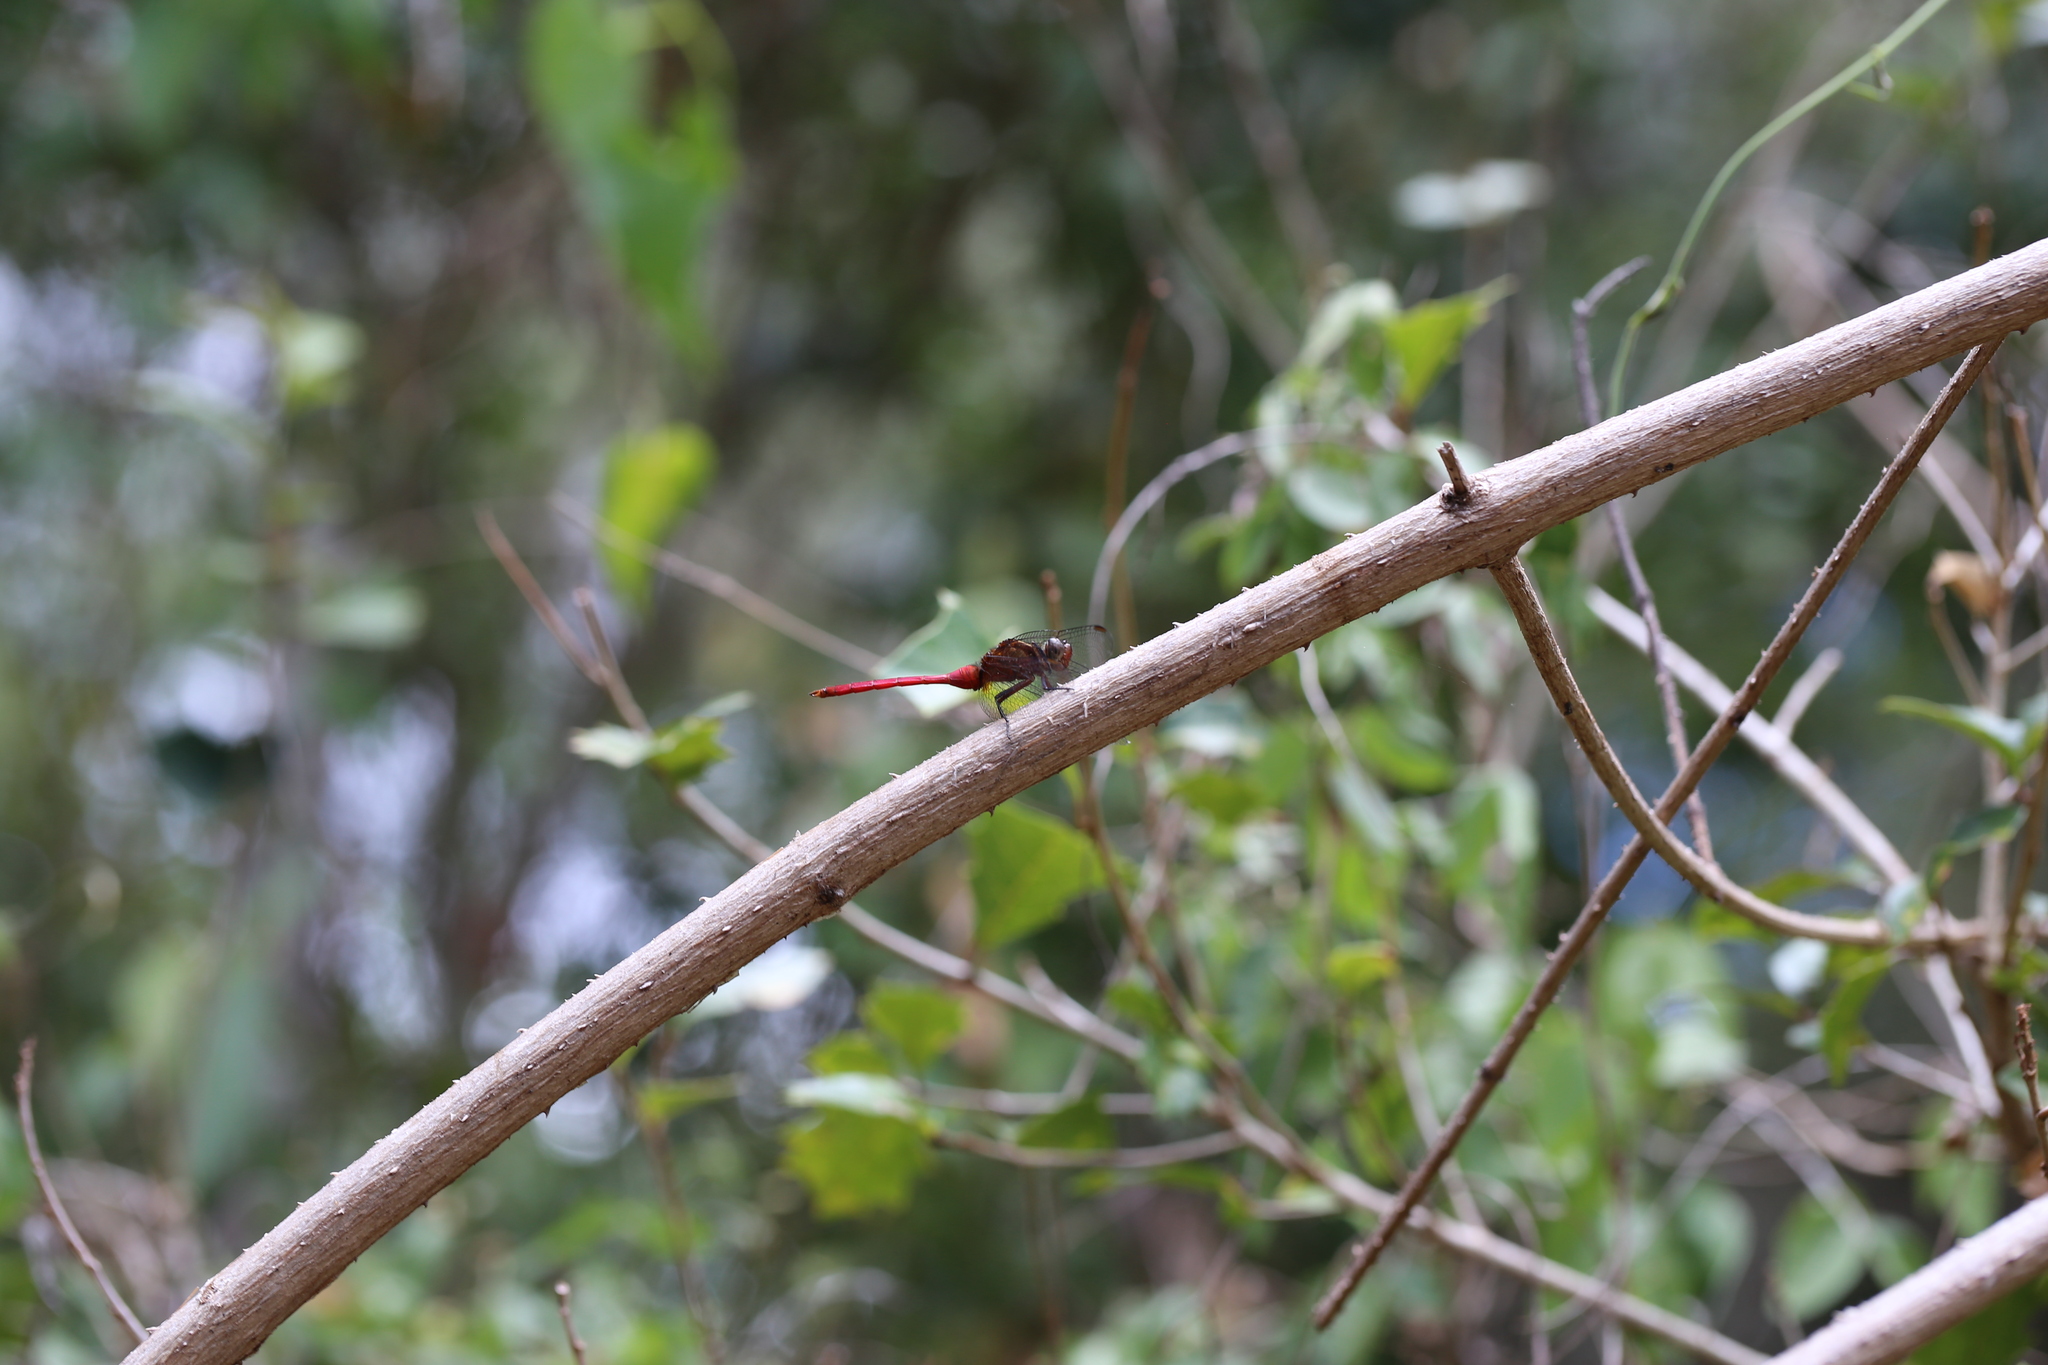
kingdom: Animalia
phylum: Arthropoda
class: Insecta
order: Odonata
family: Libellulidae
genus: Orthetrum
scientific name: Orthetrum villosovittatum
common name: Firery skimmer
